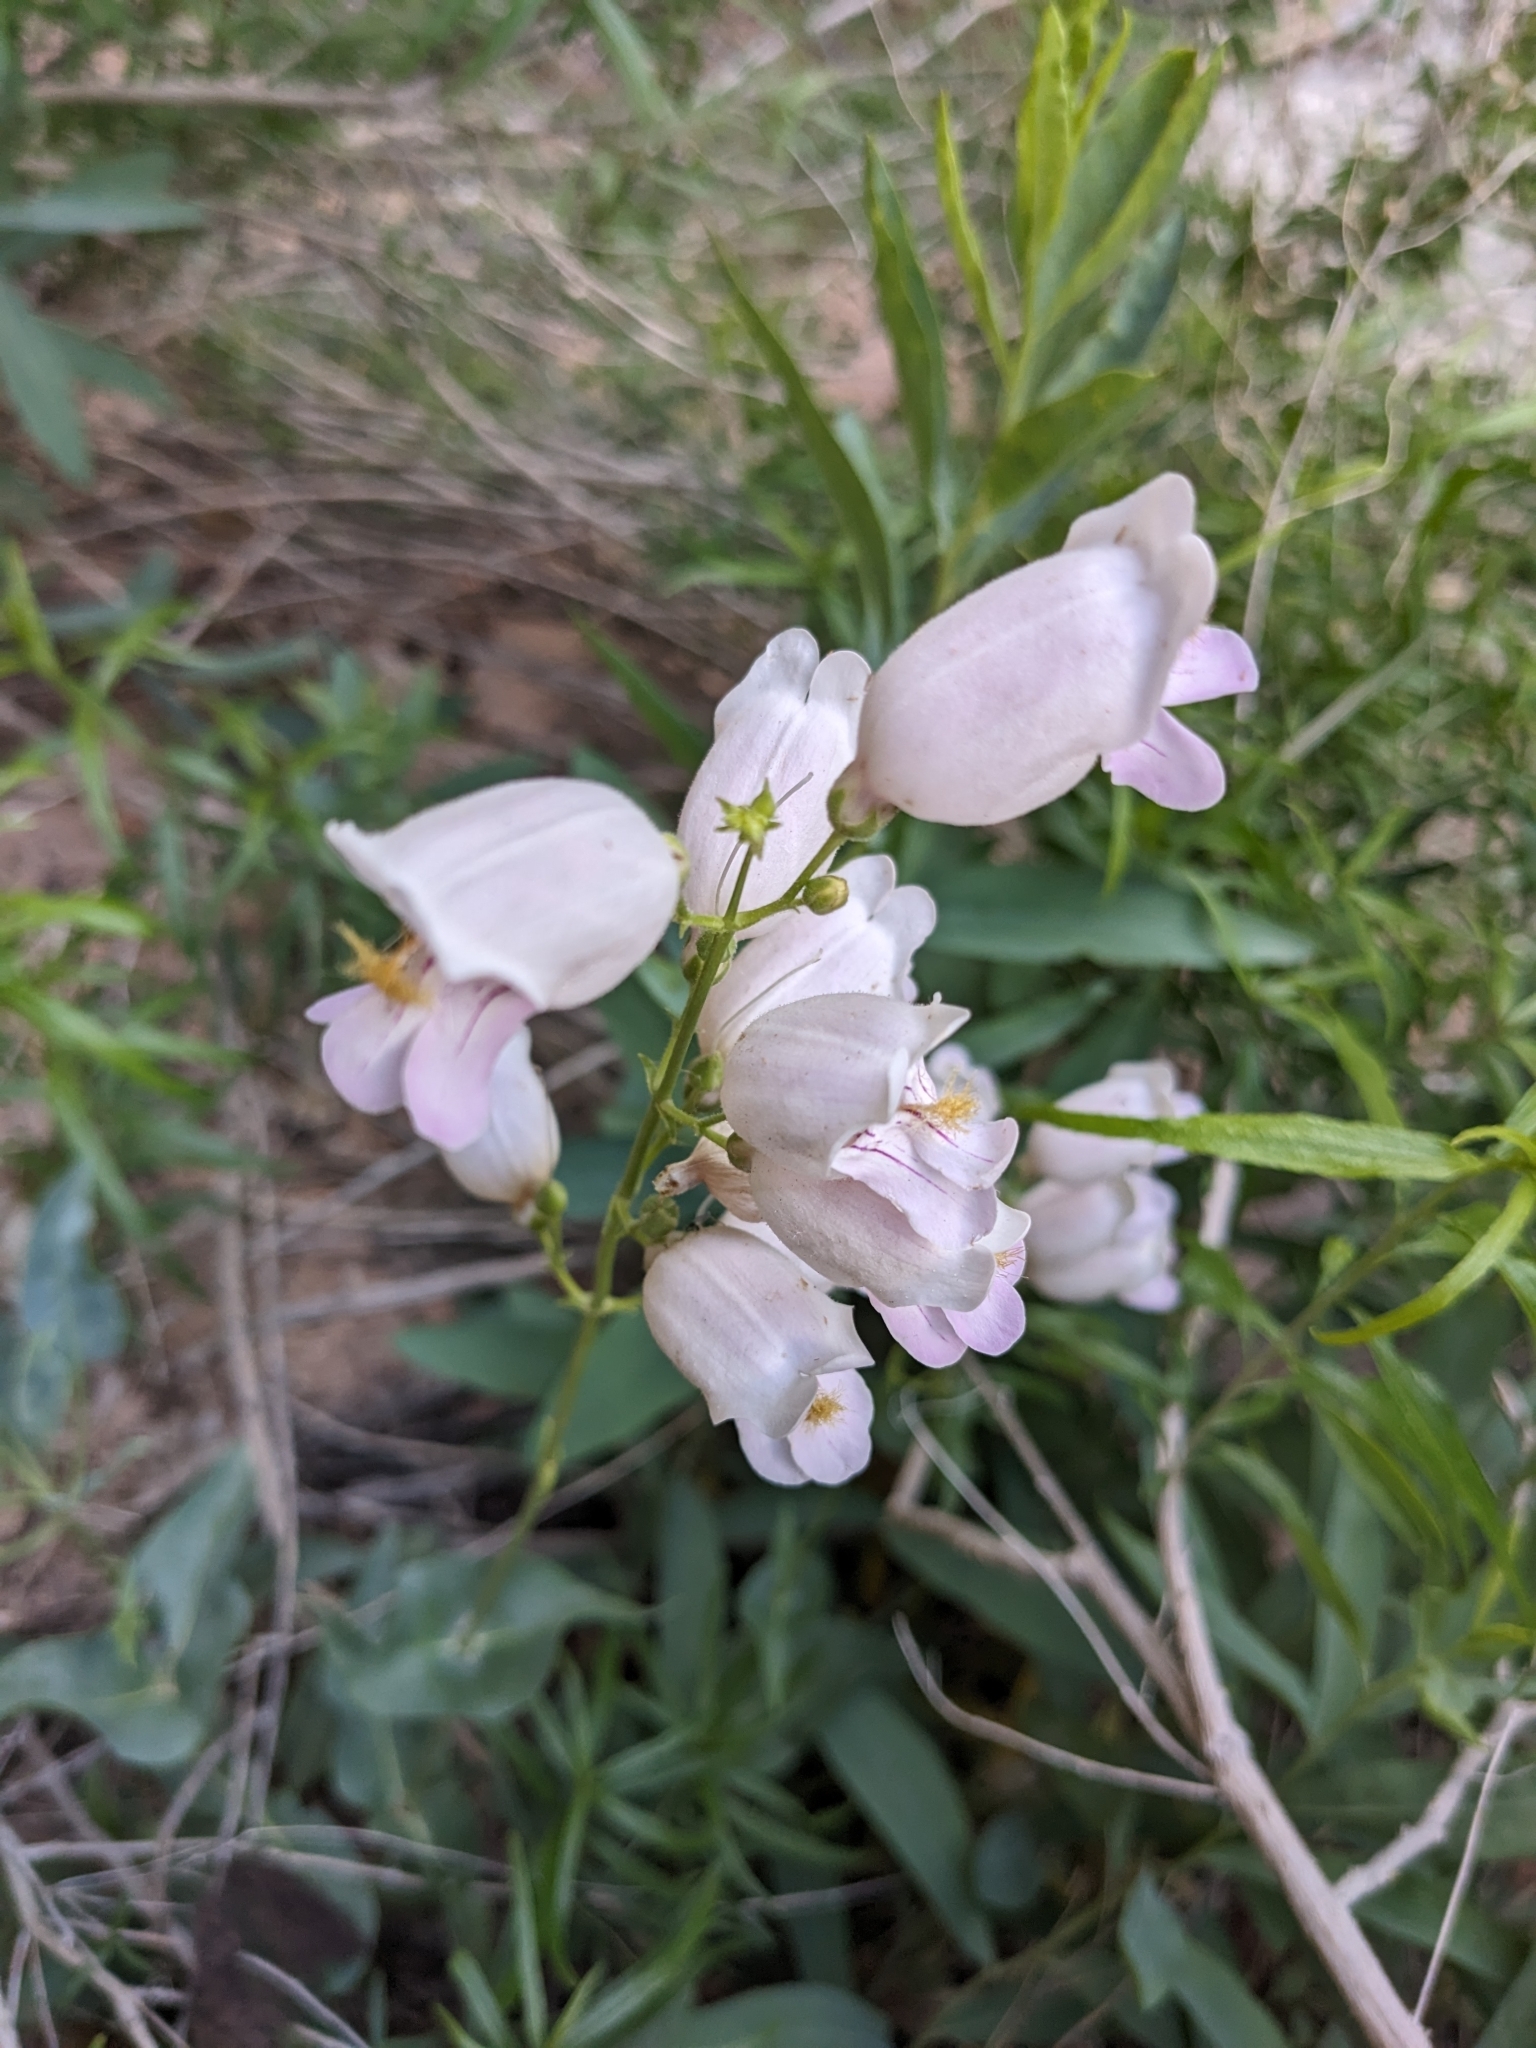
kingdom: Plantae
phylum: Tracheophyta
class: Magnoliopsida
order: Lamiales
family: Plantaginaceae
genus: Penstemon
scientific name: Penstemon palmeri
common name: Palmer penstemon
